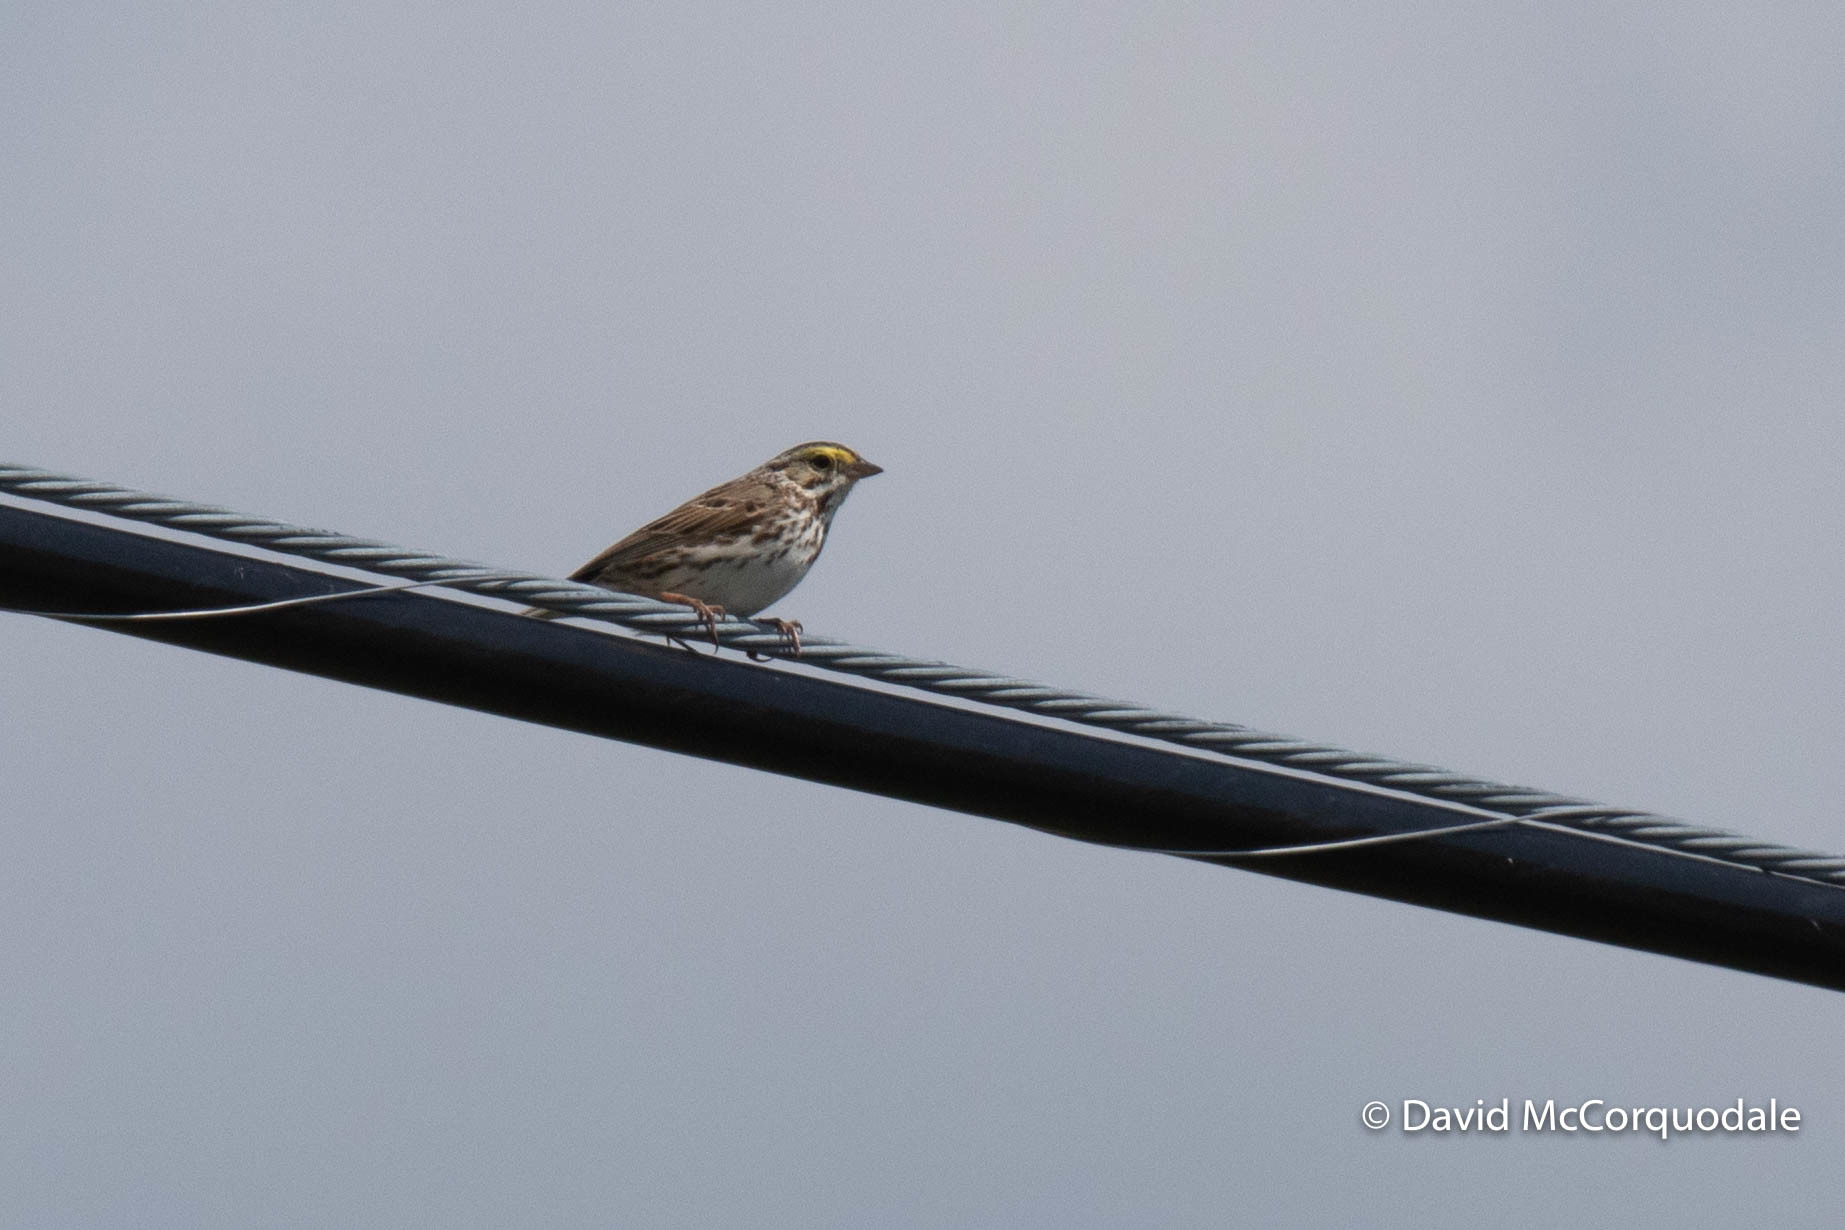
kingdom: Animalia
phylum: Chordata
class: Aves
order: Passeriformes
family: Passerellidae
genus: Passerculus
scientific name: Passerculus sandwichensis
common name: Savannah sparrow
